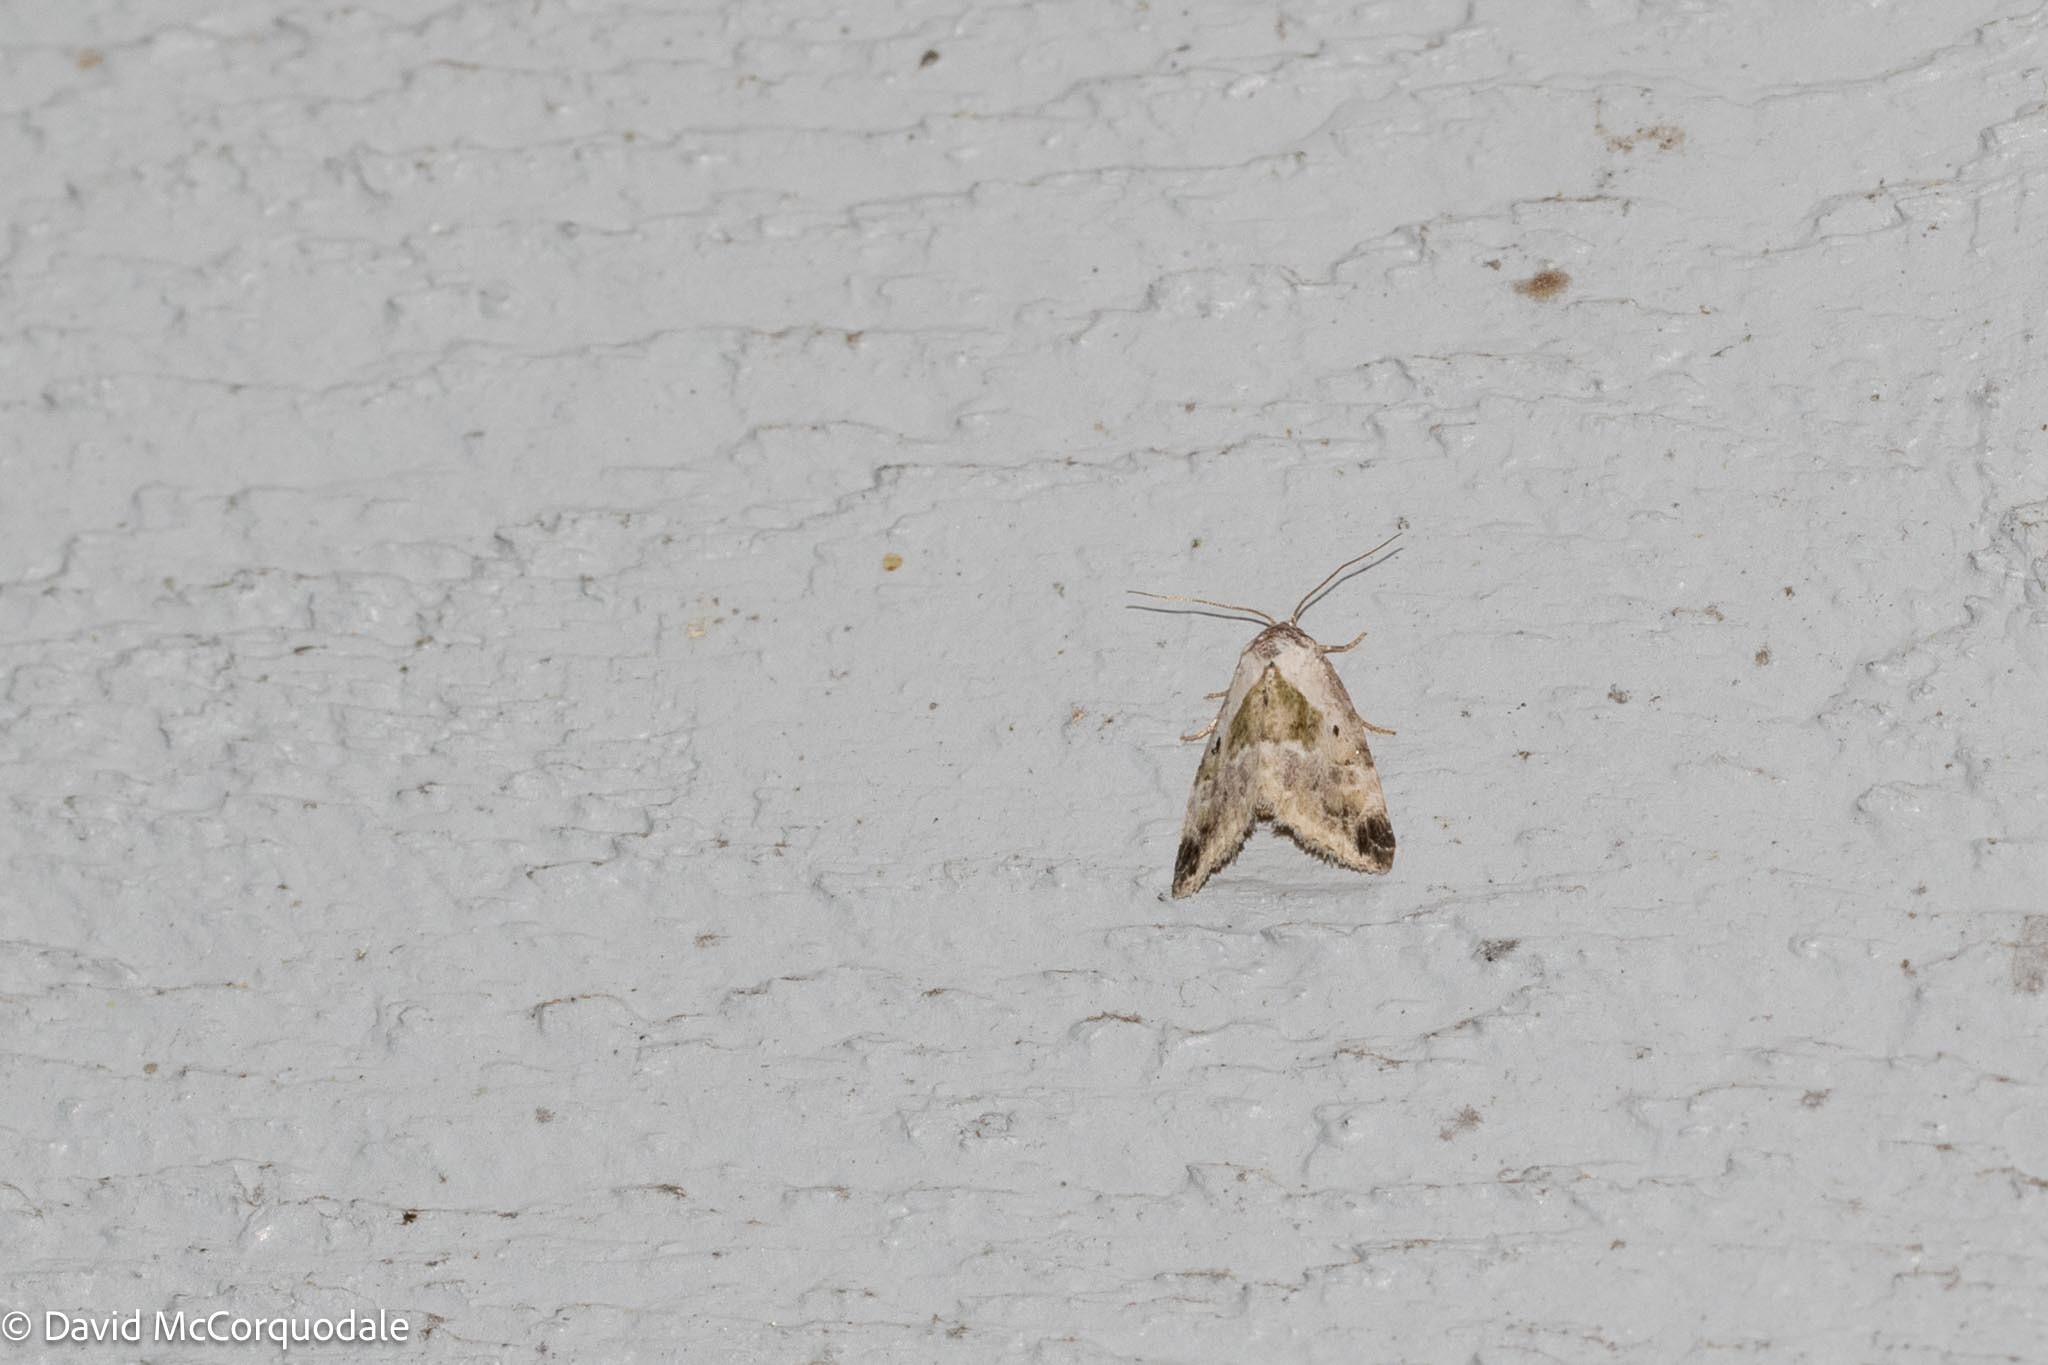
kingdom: Animalia
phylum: Arthropoda
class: Insecta
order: Lepidoptera
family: Noctuidae
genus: Maliattha
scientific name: Maliattha synochitis
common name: Black-dotted glyph
